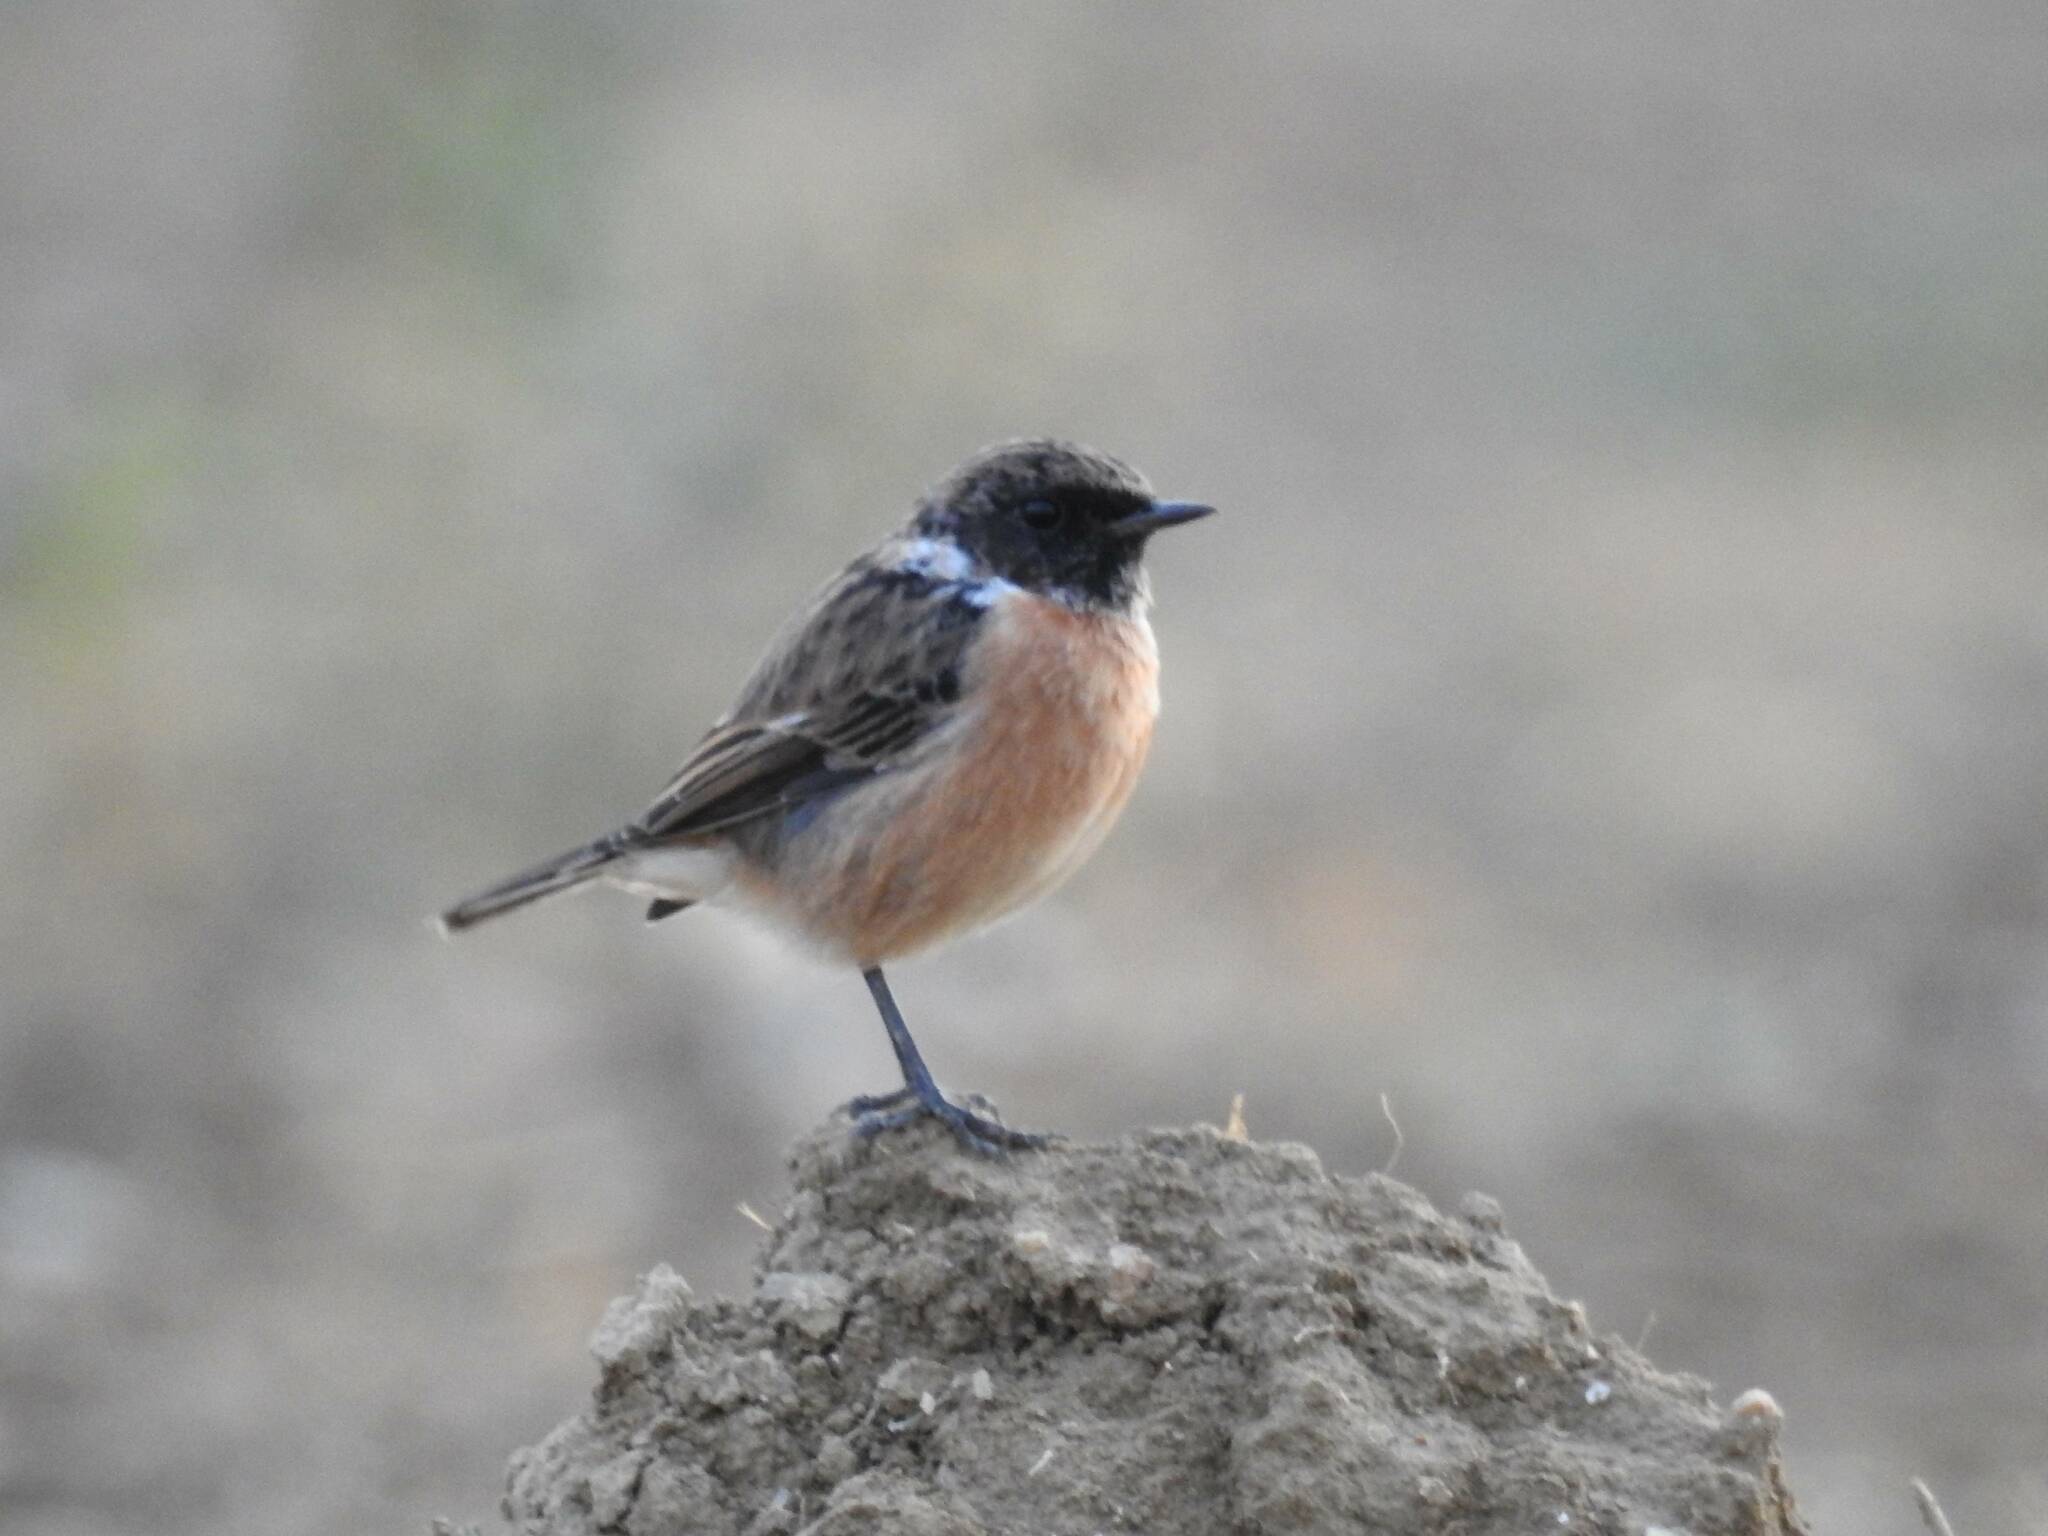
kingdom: Animalia
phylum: Chordata
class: Aves
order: Passeriformes
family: Muscicapidae
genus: Saxicola
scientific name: Saxicola rubicola
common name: European stonechat
